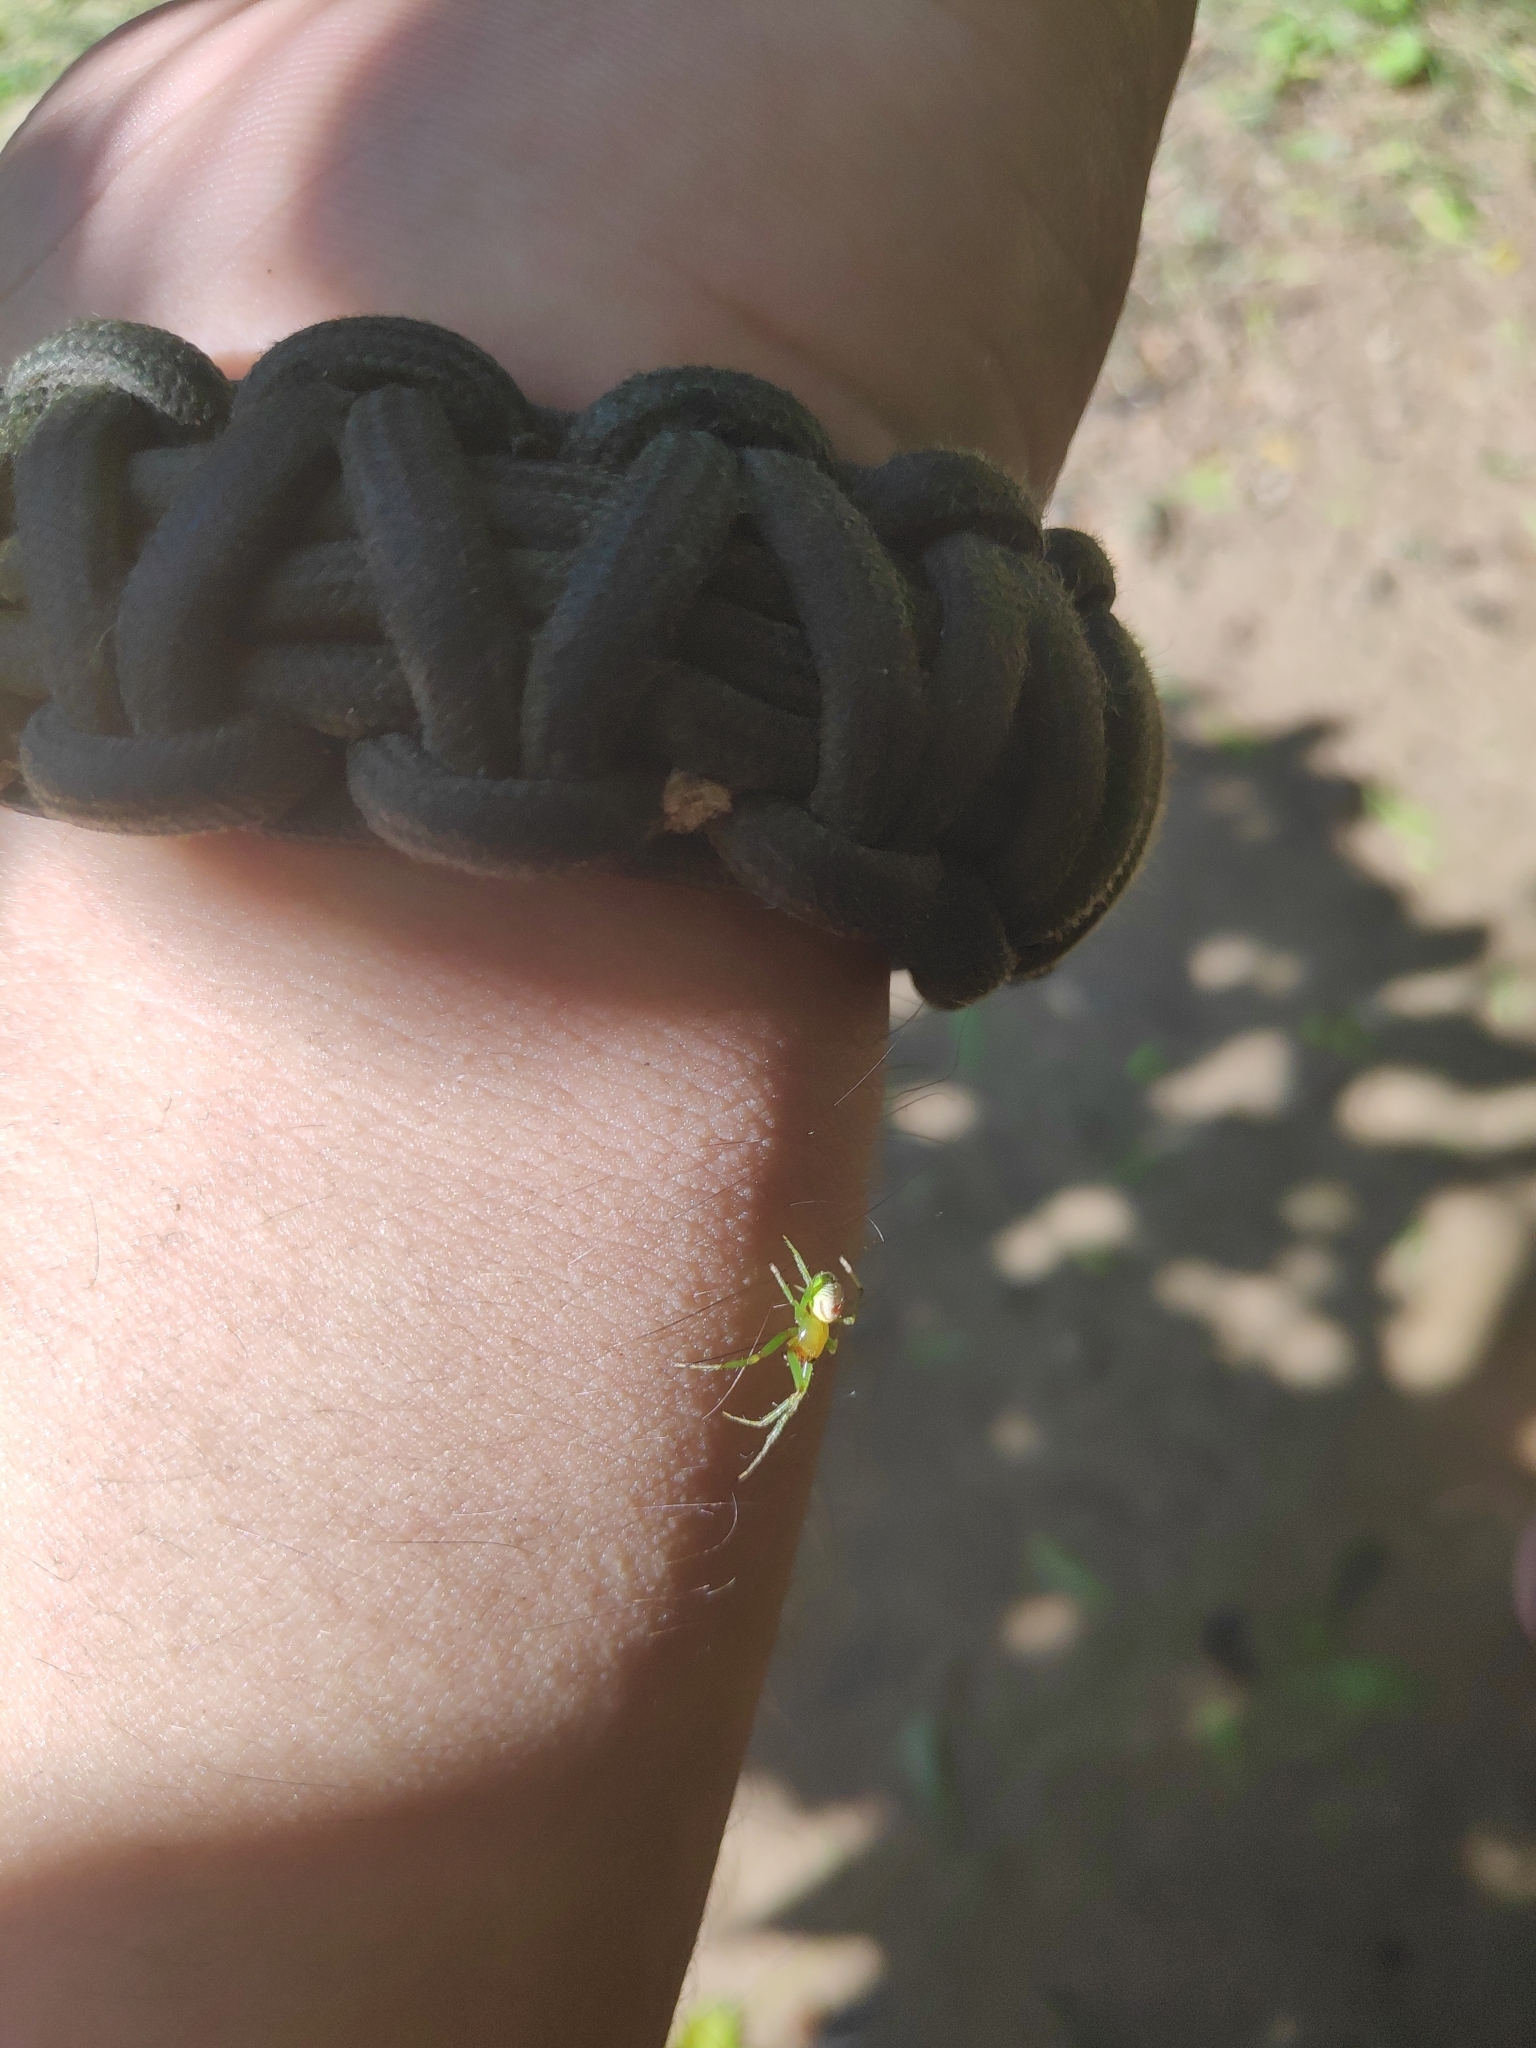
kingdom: Animalia
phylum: Arthropoda
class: Arachnida
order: Araneae
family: Araneidae
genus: Bijoaraneus
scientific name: Bijoaraneus mitificus
